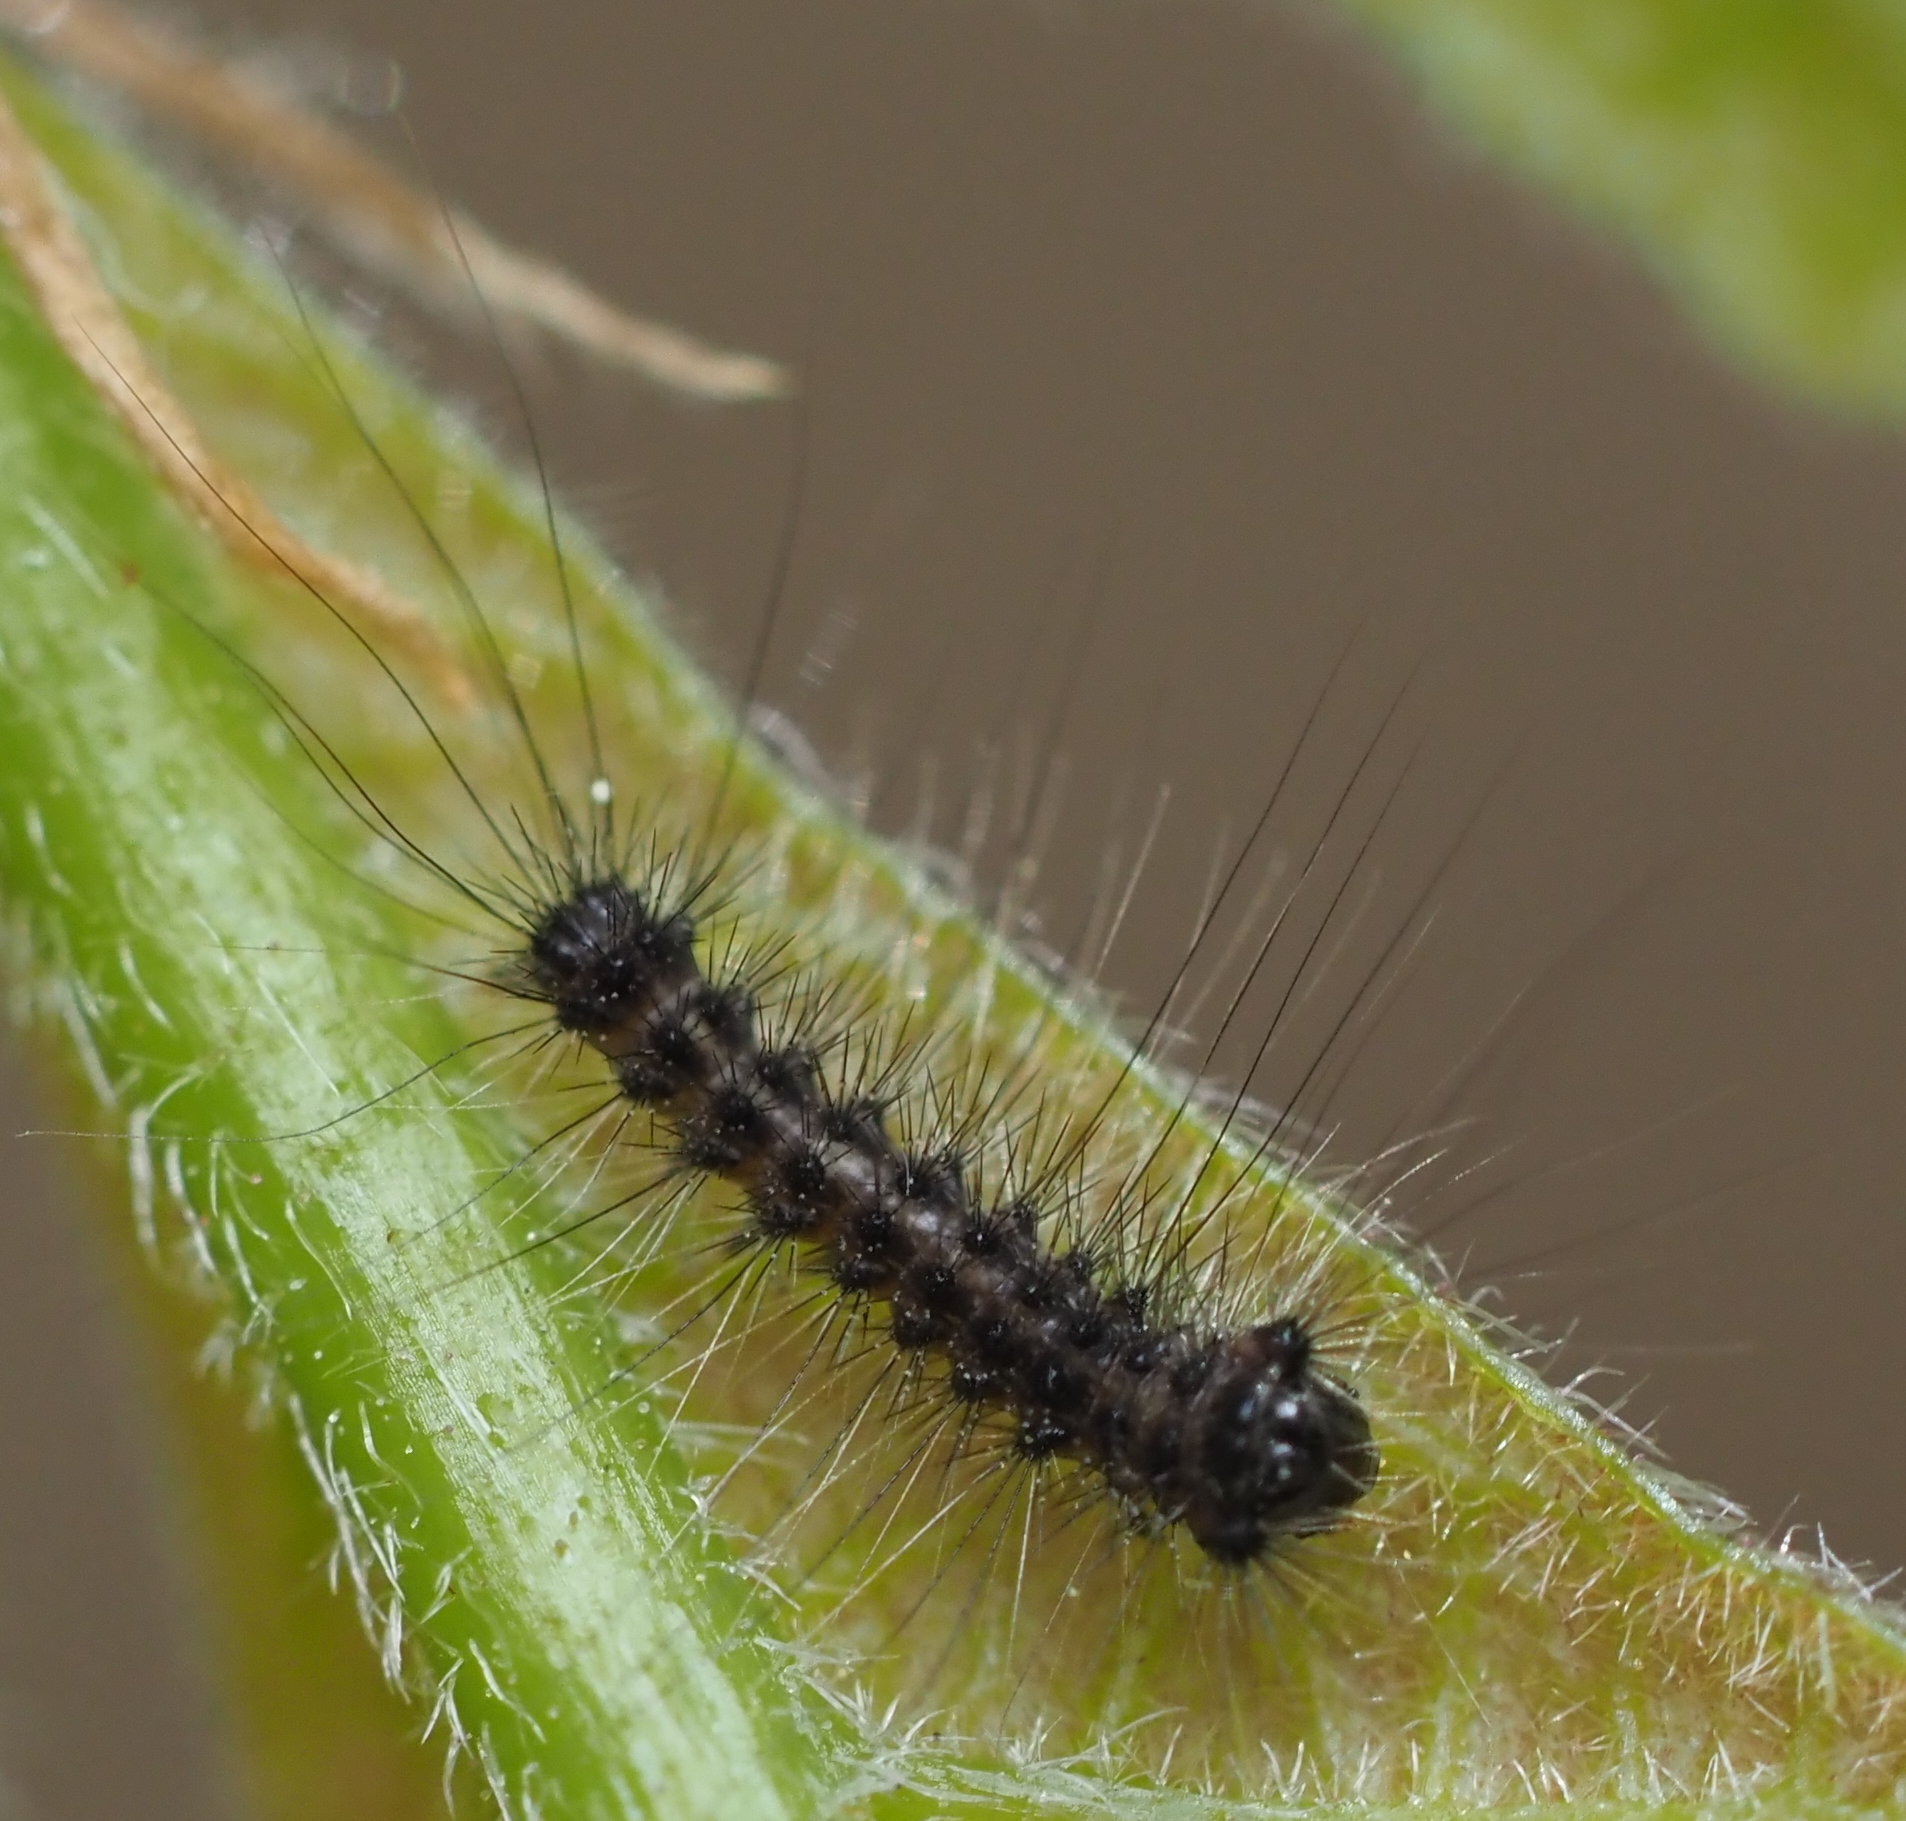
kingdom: Animalia
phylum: Arthropoda
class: Insecta
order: Lepidoptera
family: Erebidae
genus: Lymantria
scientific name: Lymantria dispar
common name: Gypsy moth
